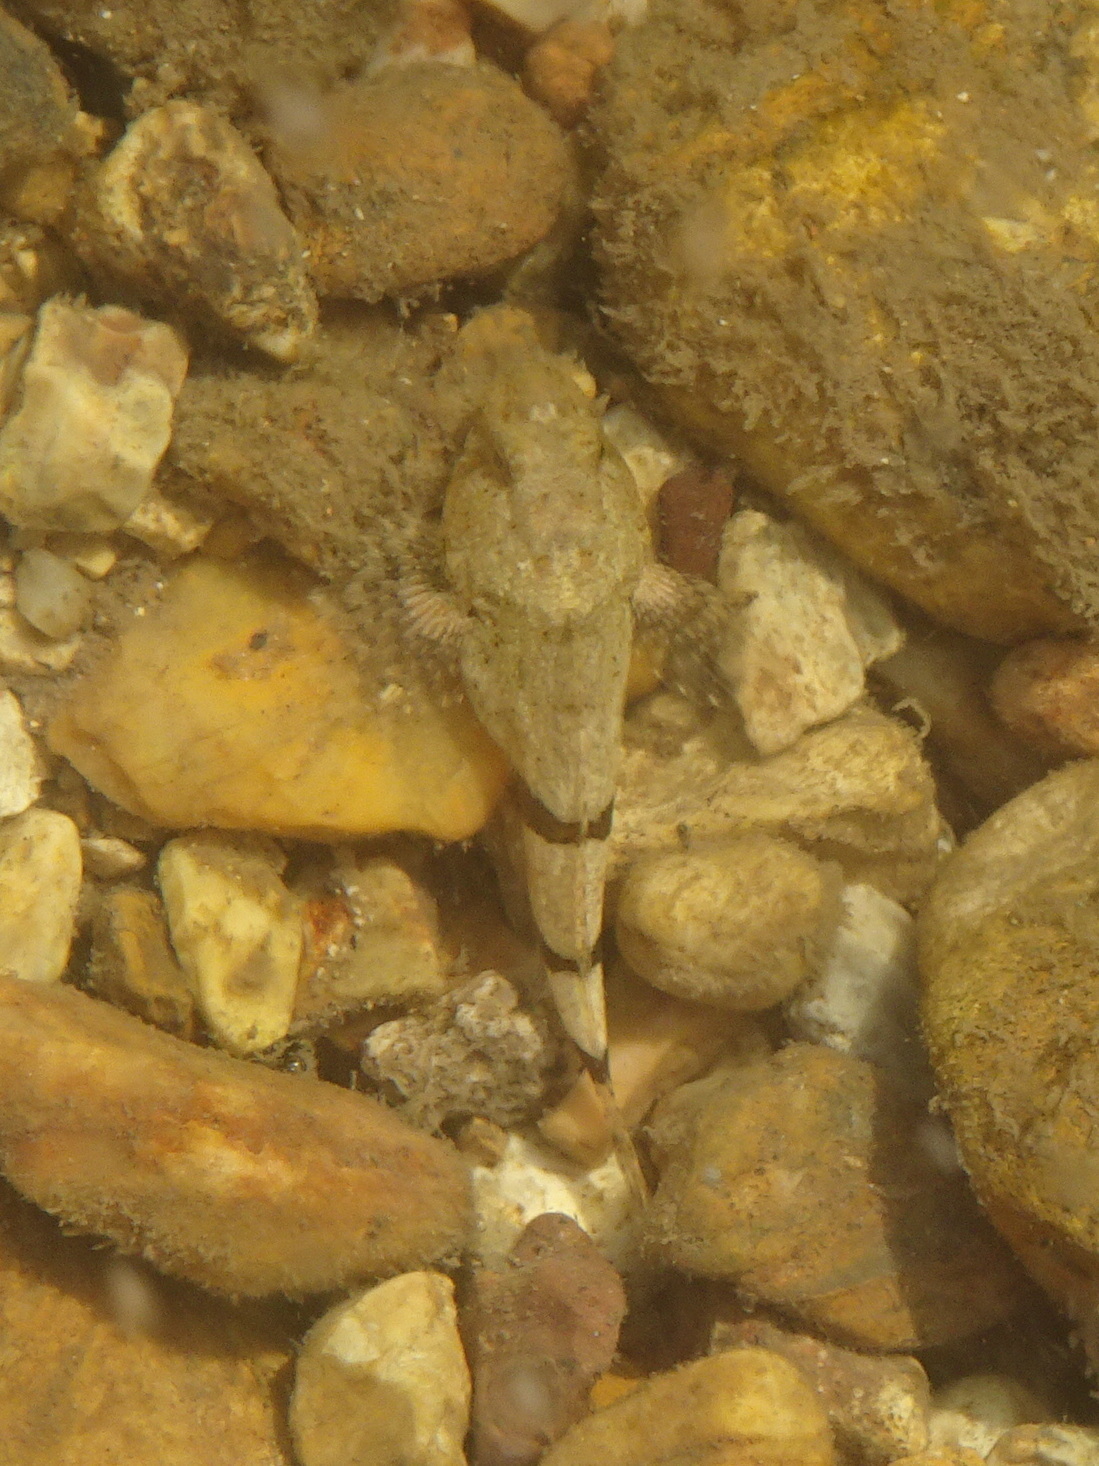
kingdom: Animalia
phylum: Chordata
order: Scorpaeniformes
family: Cottidae
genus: Cottus
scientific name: Cottus carolinae
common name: Banded sculpin
